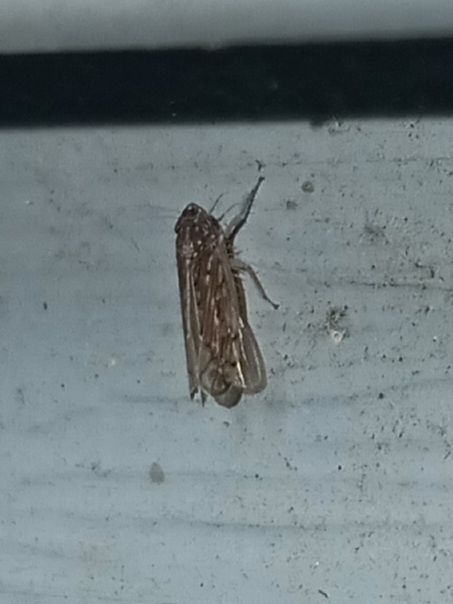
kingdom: Animalia
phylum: Arthropoda
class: Insecta
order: Hemiptera
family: Cicadellidae
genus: Osbornellus
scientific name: Osbornellus clarus
